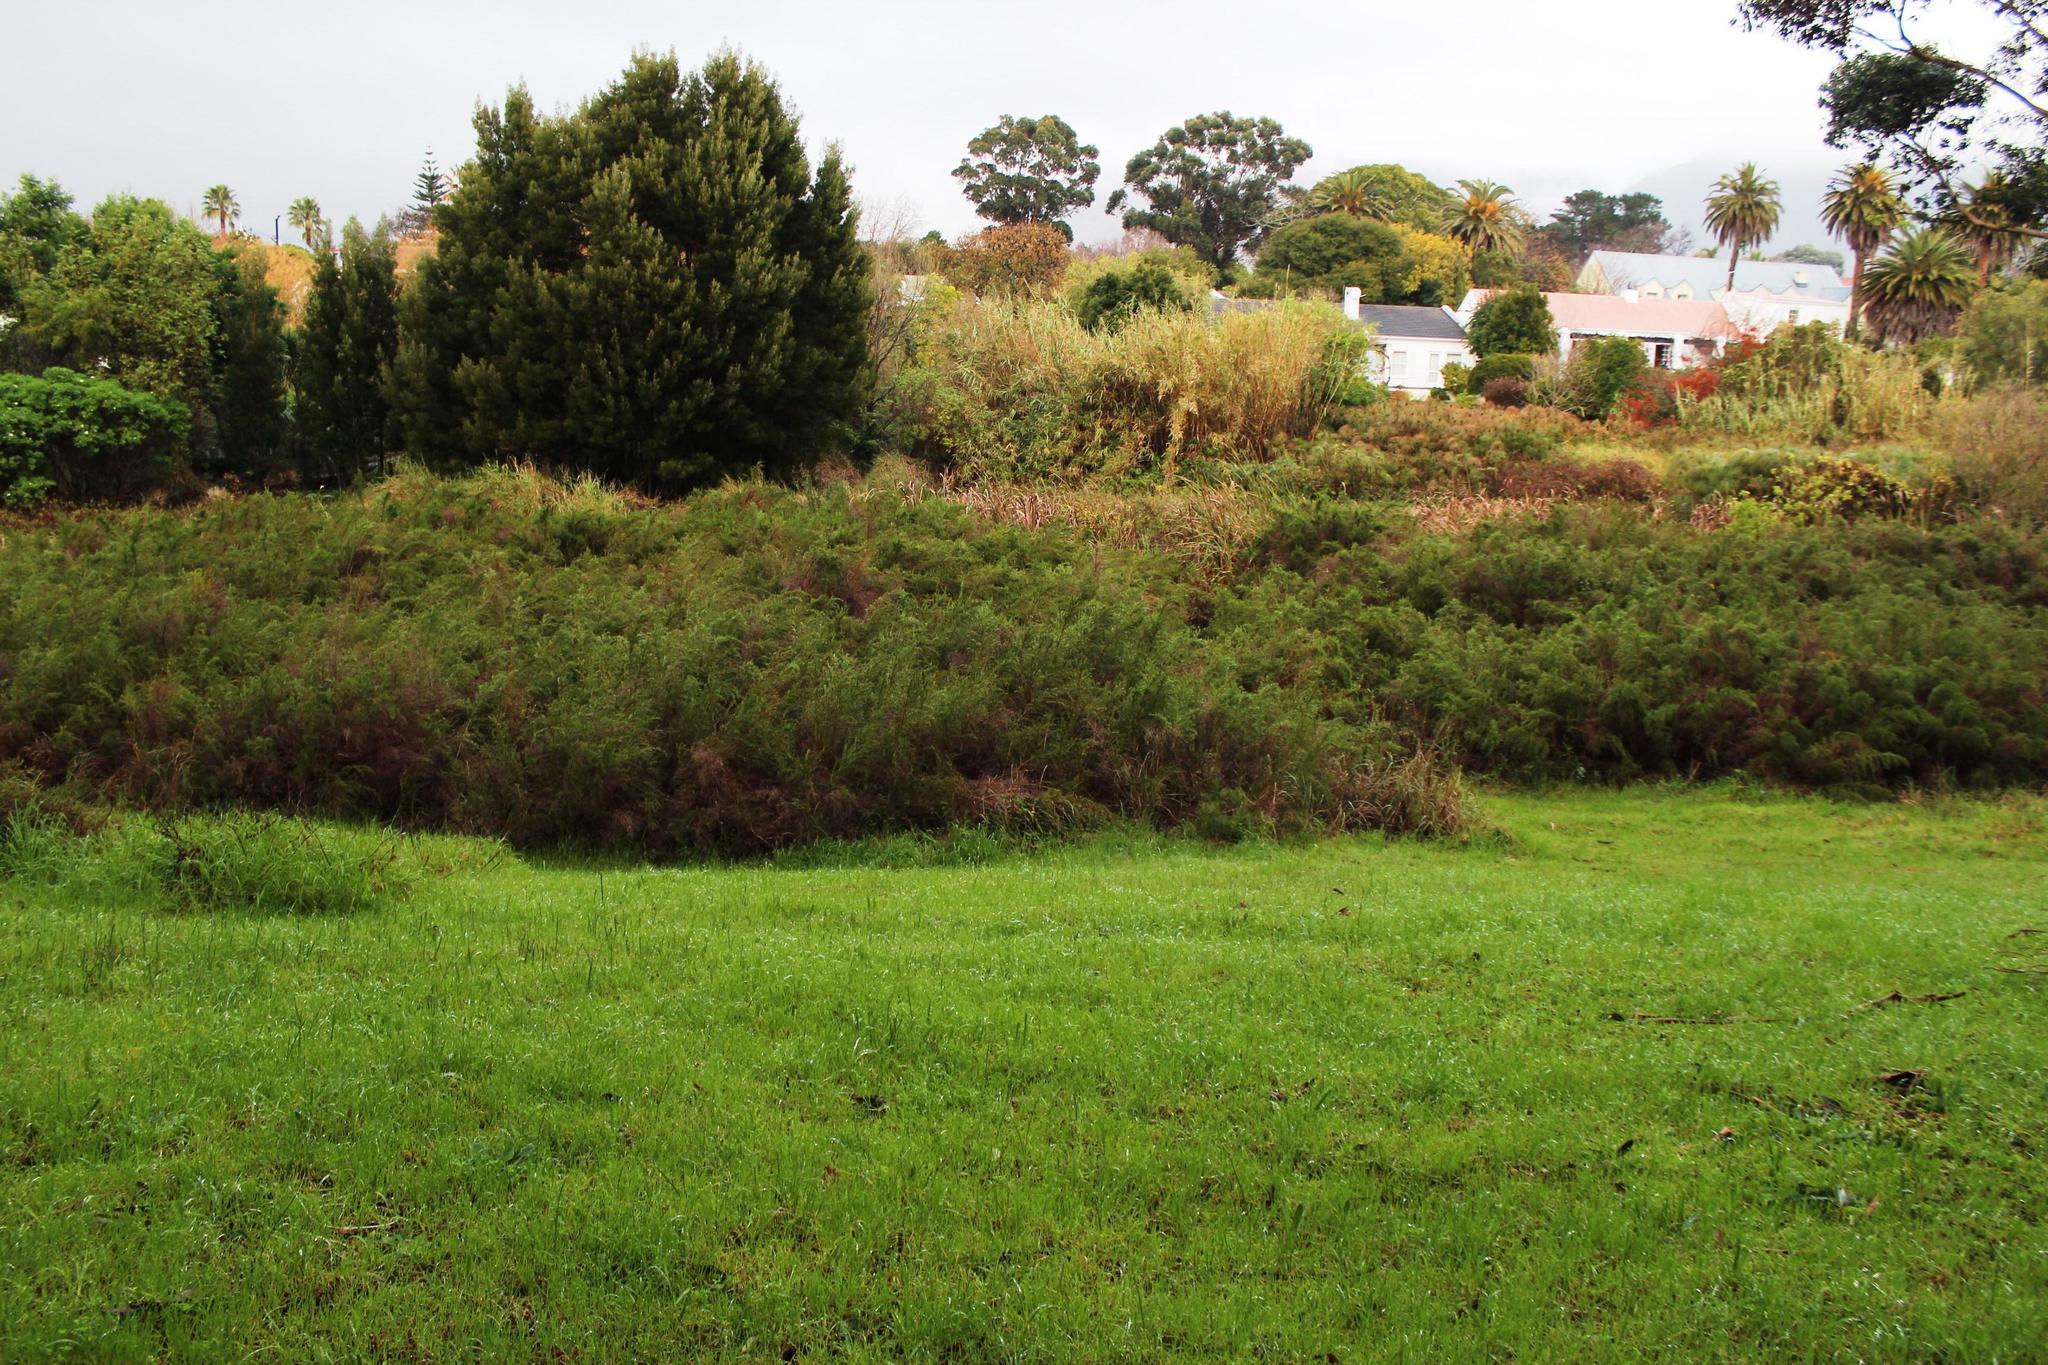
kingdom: Plantae
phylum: Tracheophyta
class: Magnoliopsida
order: Rosales
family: Rosaceae
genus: Cliffortia
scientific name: Cliffortia strobilifera
